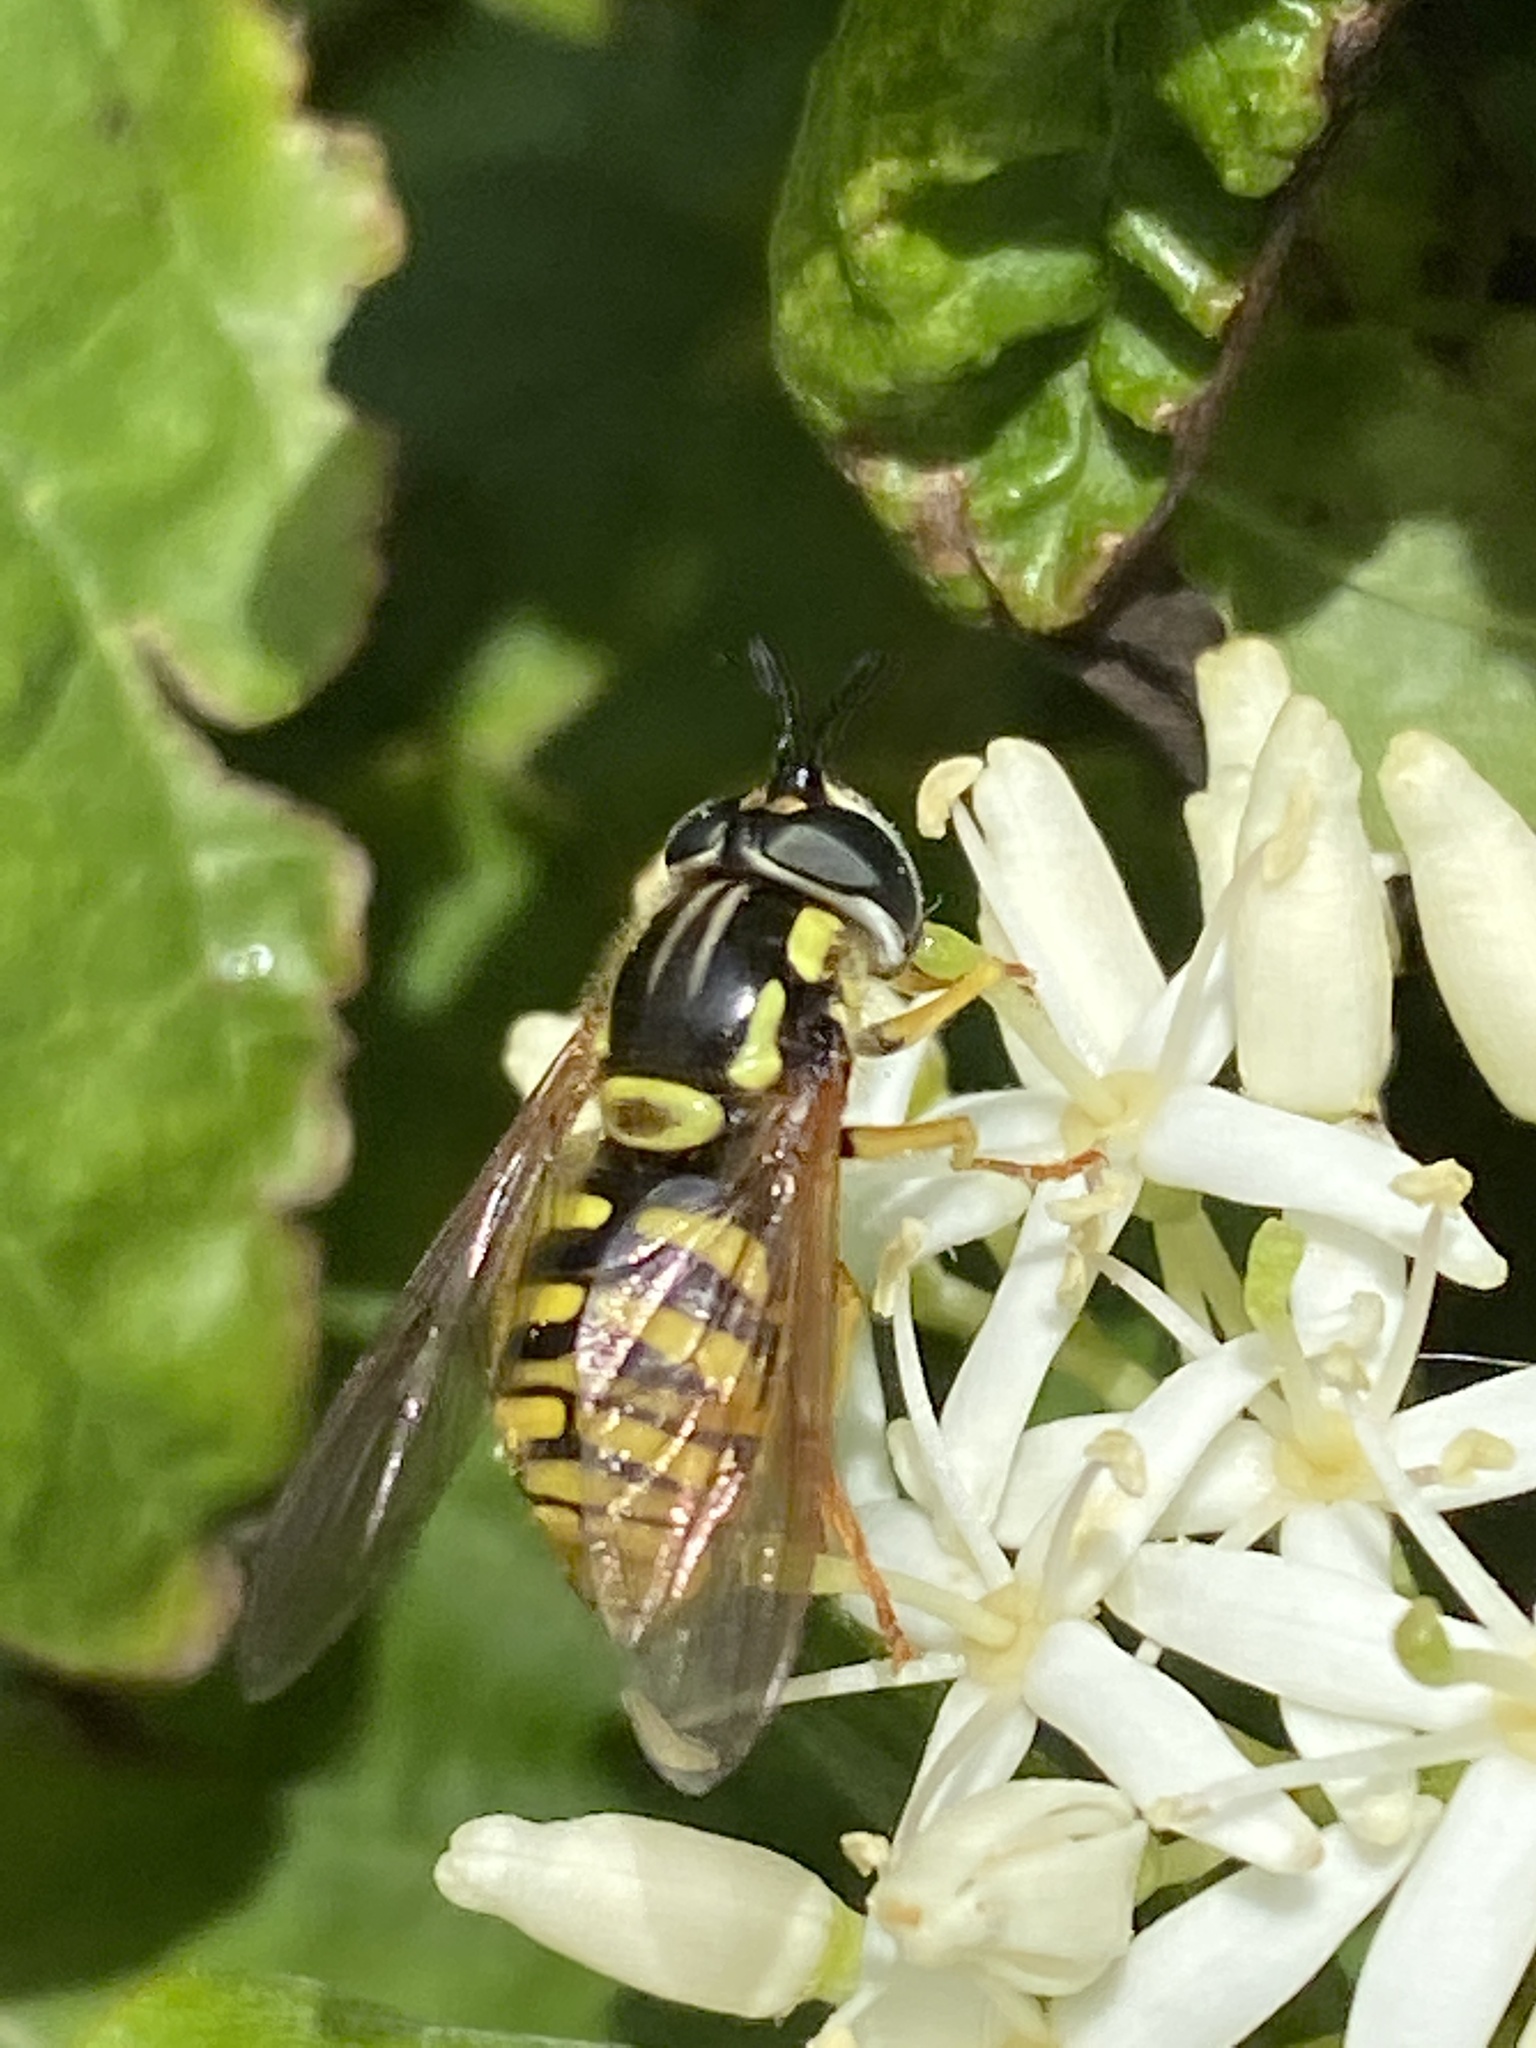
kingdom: Animalia
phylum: Arthropoda
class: Insecta
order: Diptera
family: Syrphidae
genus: Chrysotoxum
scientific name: Chrysotoxum
